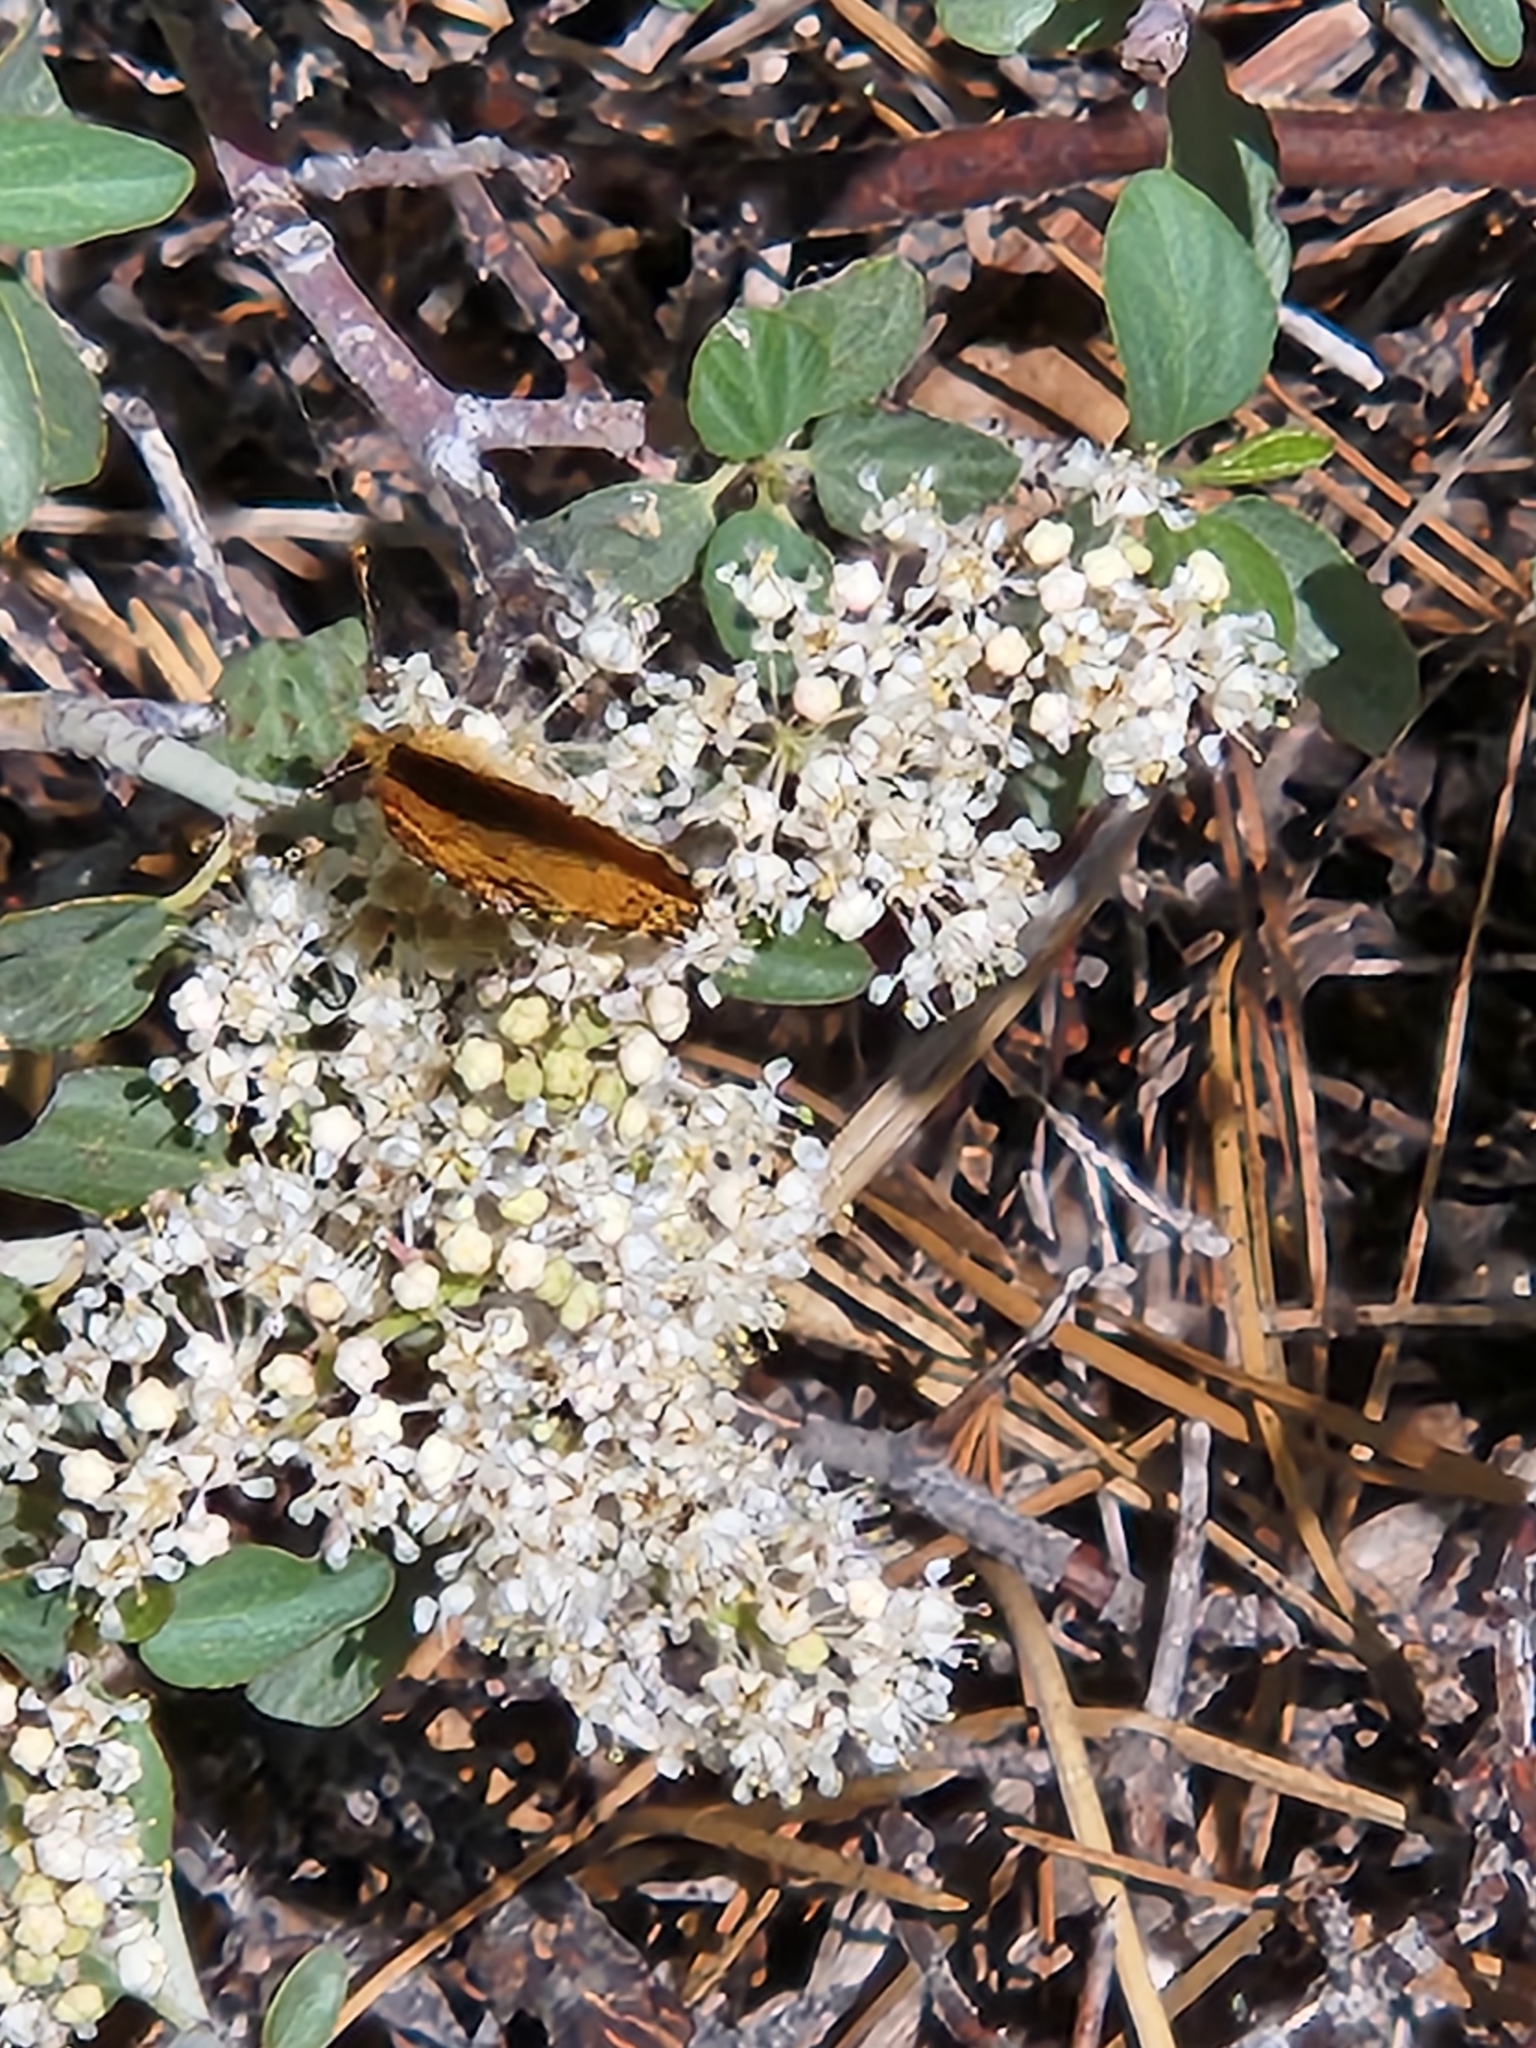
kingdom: Animalia
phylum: Arthropoda
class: Insecta
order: Lepidoptera
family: Nymphalidae
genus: Eresia
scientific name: Eresia aveyrona
